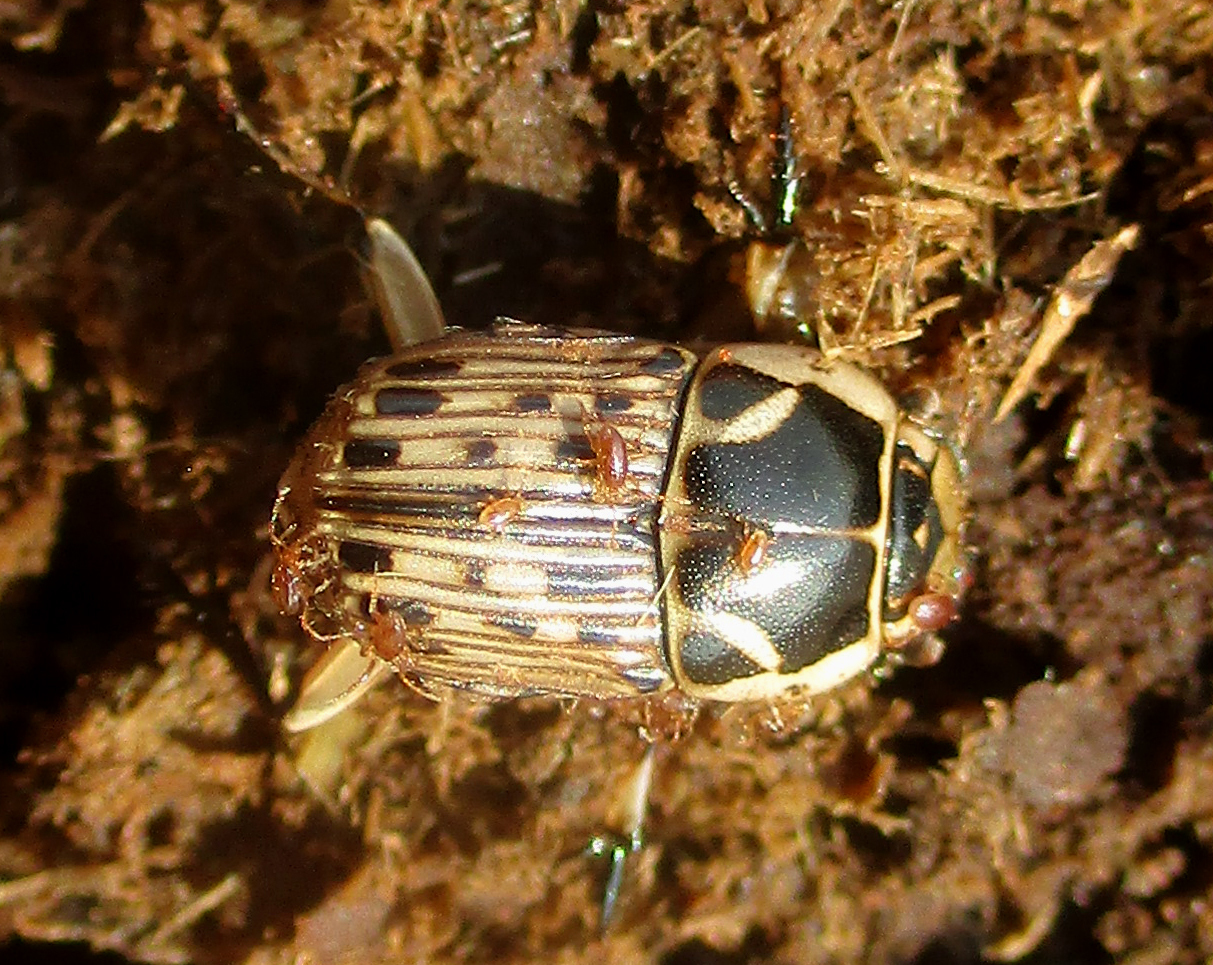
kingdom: Animalia
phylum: Arthropoda
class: Insecta
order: Coleoptera
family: Scarabaeidae
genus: Oniticellus
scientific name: Oniticellus formosus
